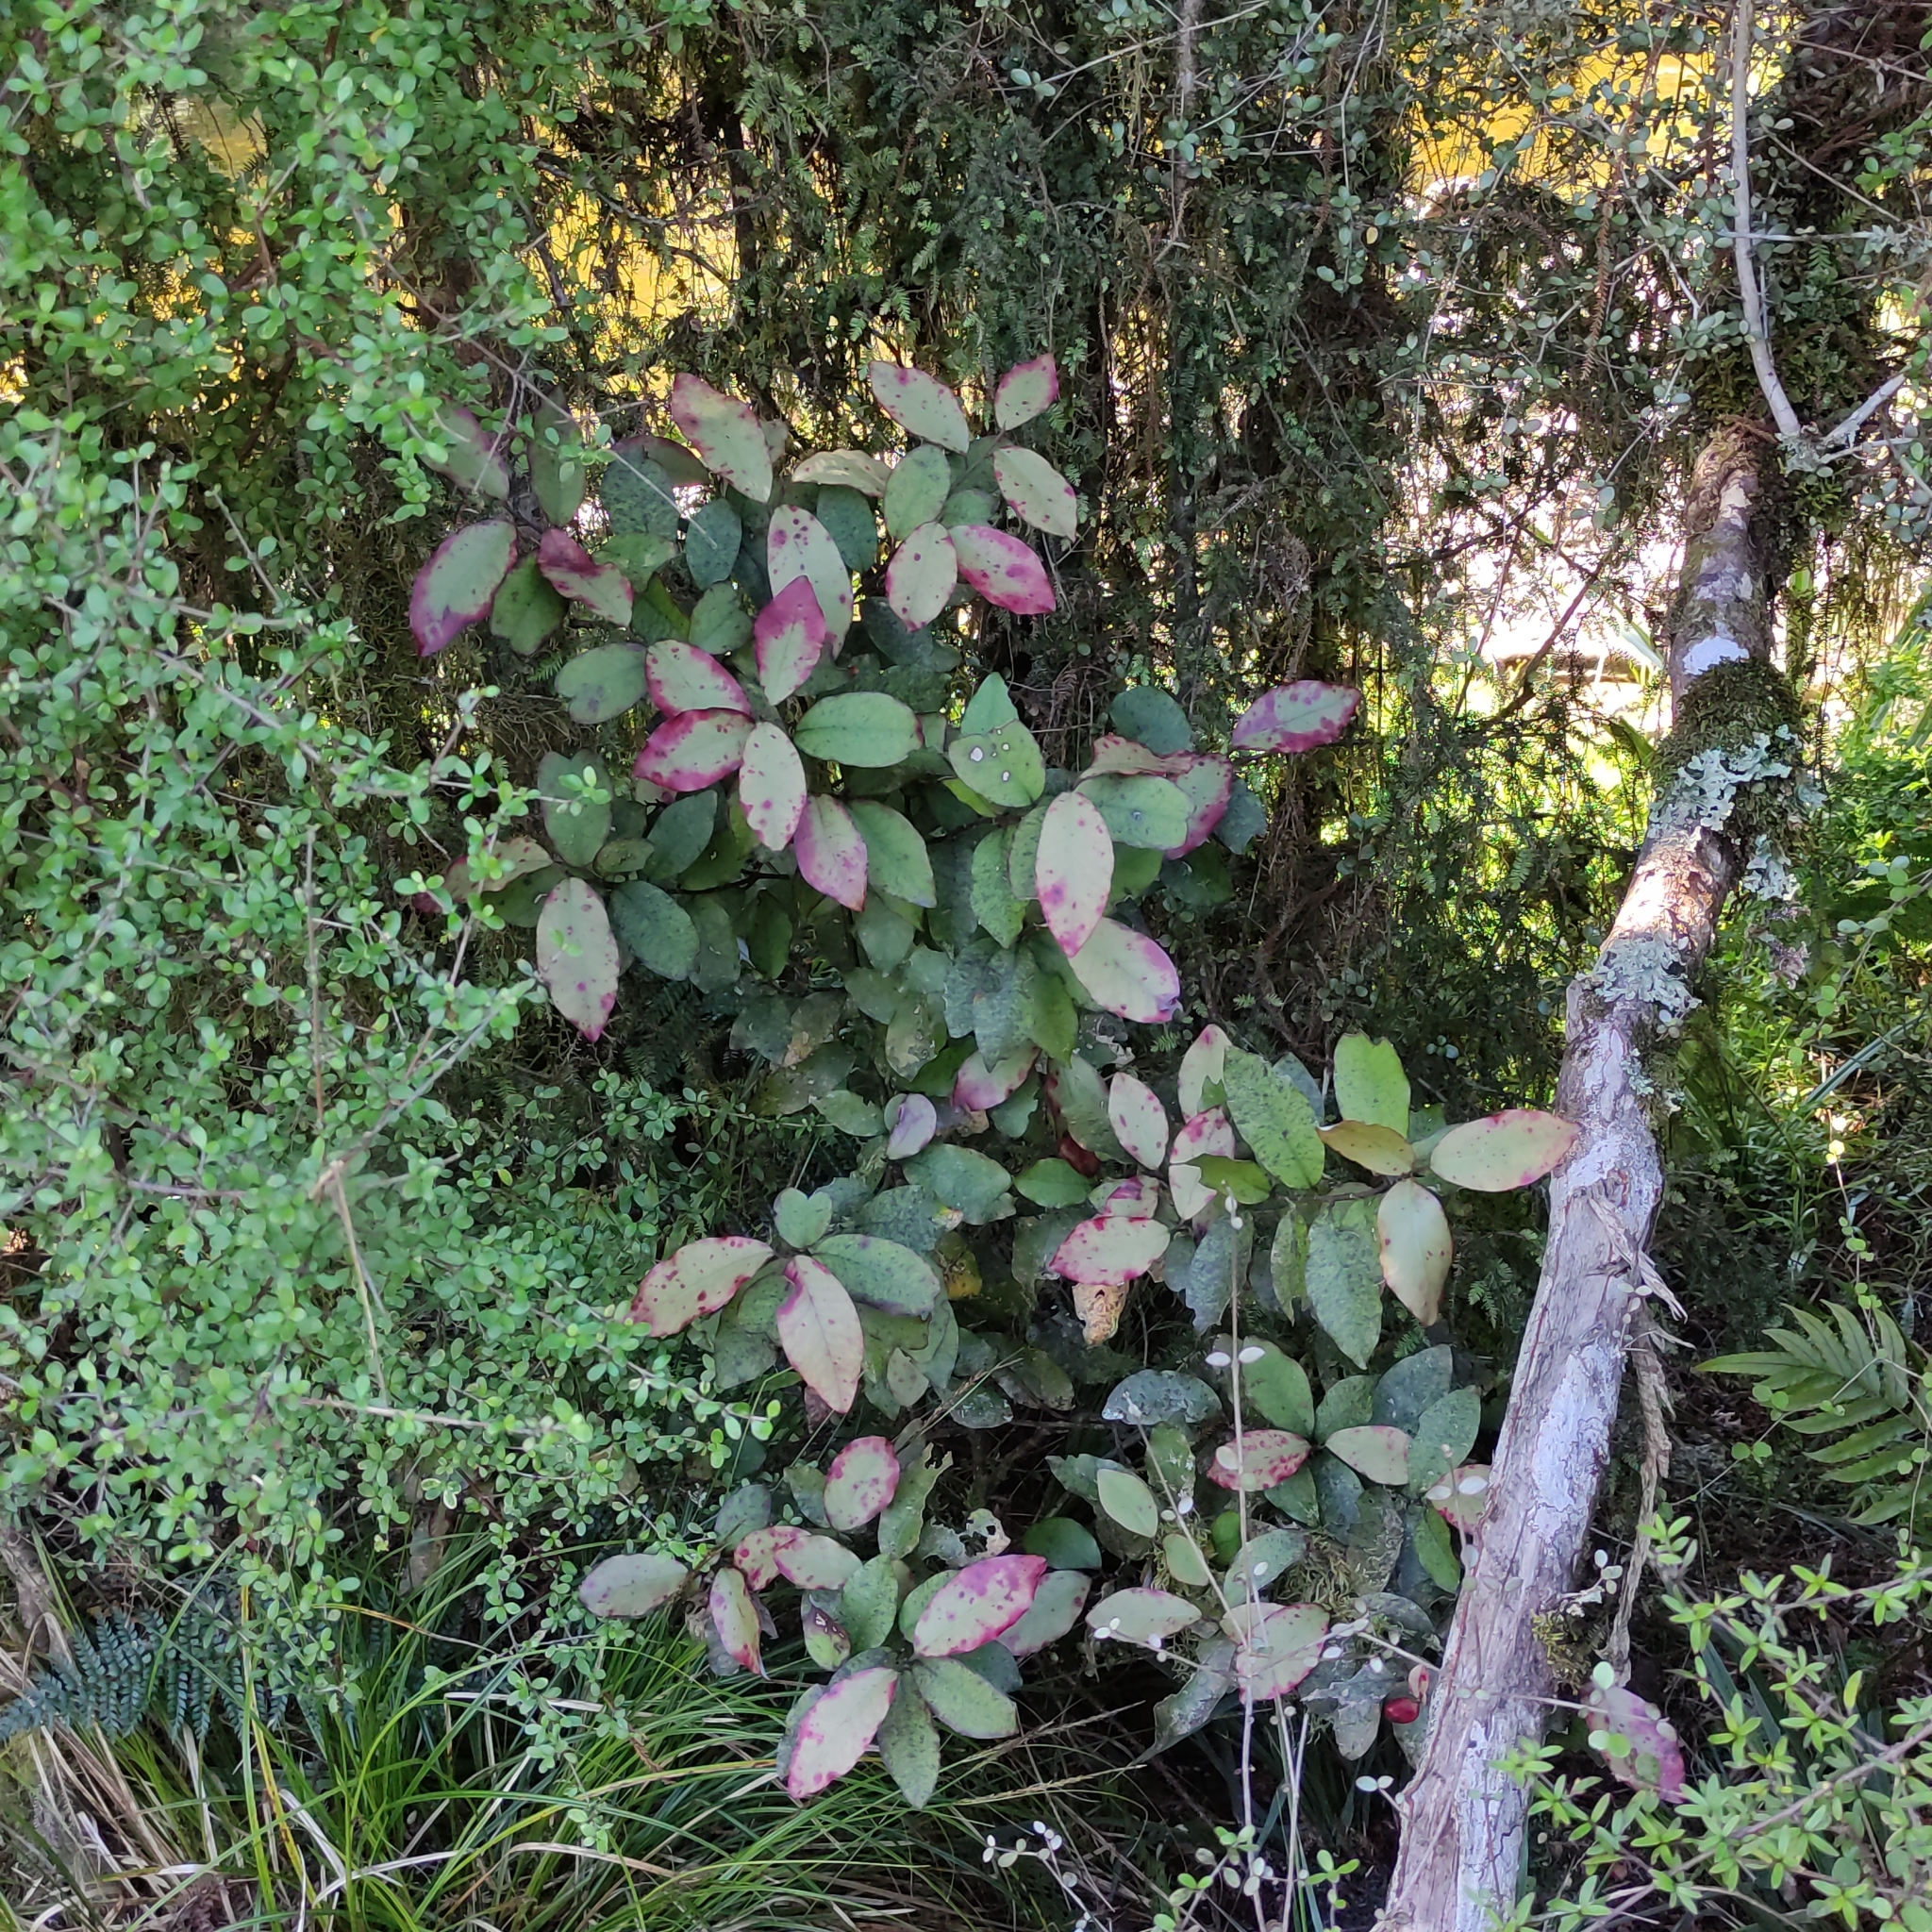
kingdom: Plantae
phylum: Tracheophyta
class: Magnoliopsida
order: Canellales
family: Winteraceae
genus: Pseudowintera
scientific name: Pseudowintera colorata
